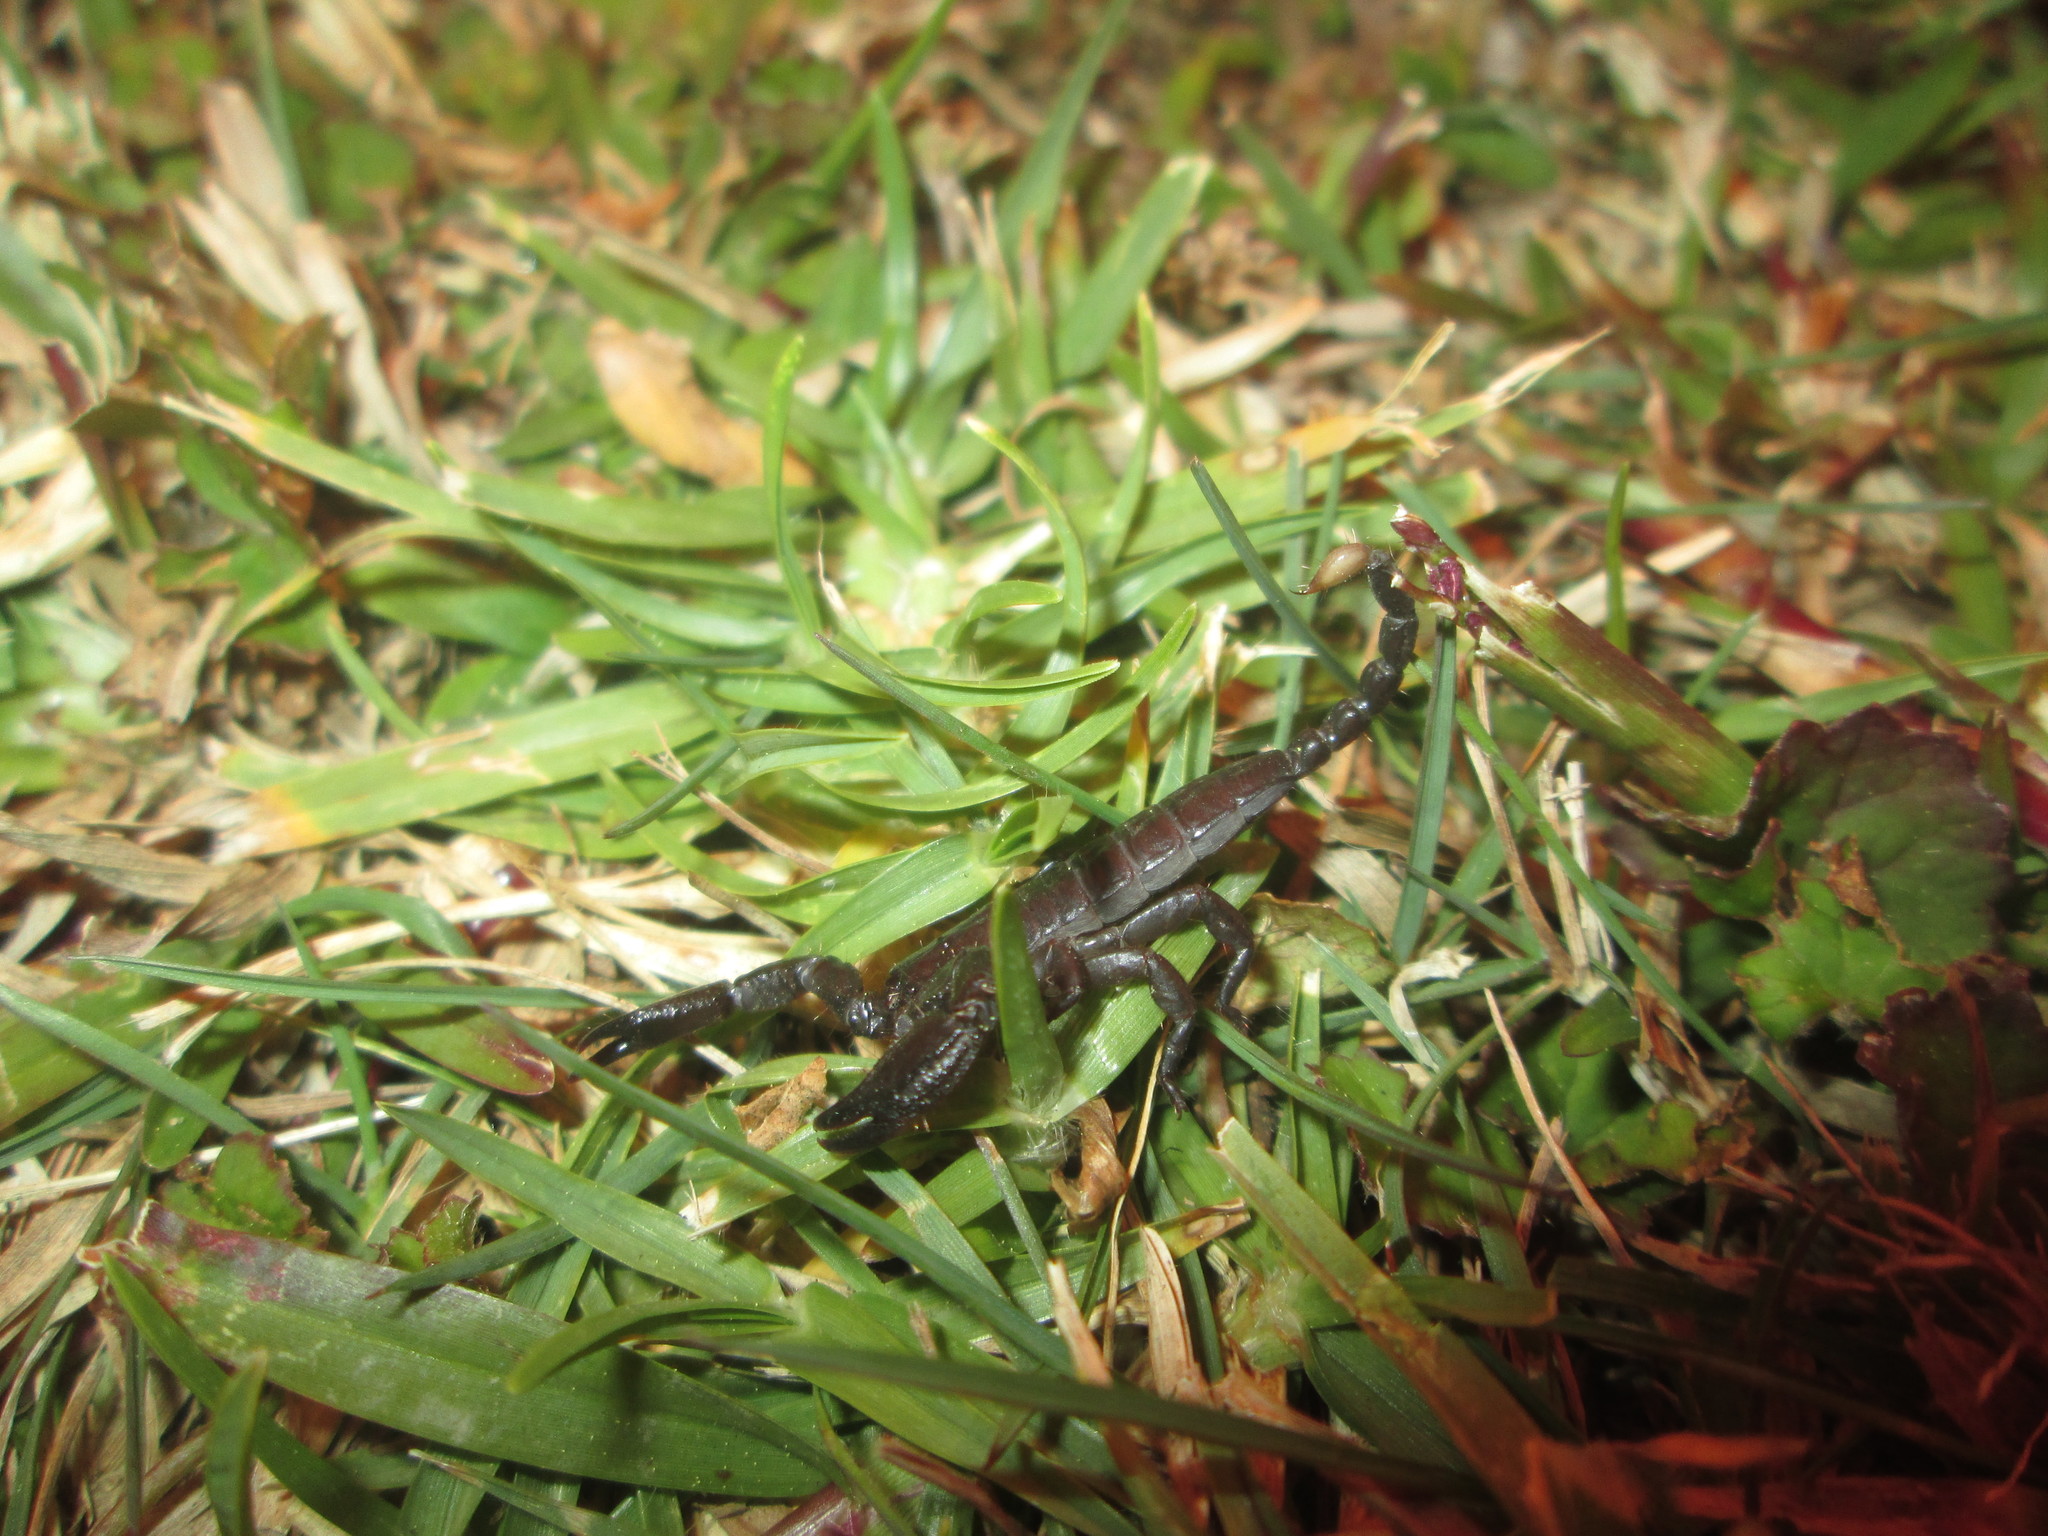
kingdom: Animalia
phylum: Arthropoda
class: Arachnida
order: Scorpiones
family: Hormuridae
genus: Opisthacanthus
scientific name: Opisthacanthus validus
